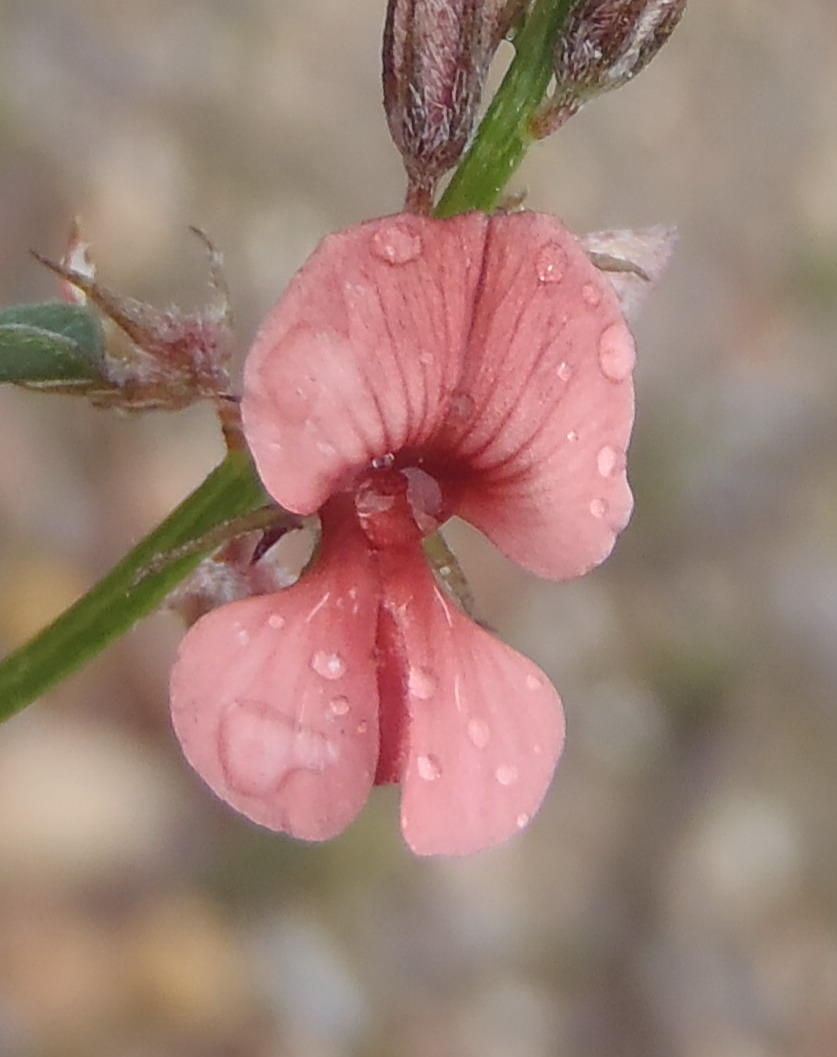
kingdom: Plantae
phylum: Tracheophyta
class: Magnoliopsida
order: Fabales
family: Fabaceae
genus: Indigofera
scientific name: Indigofera priorii
